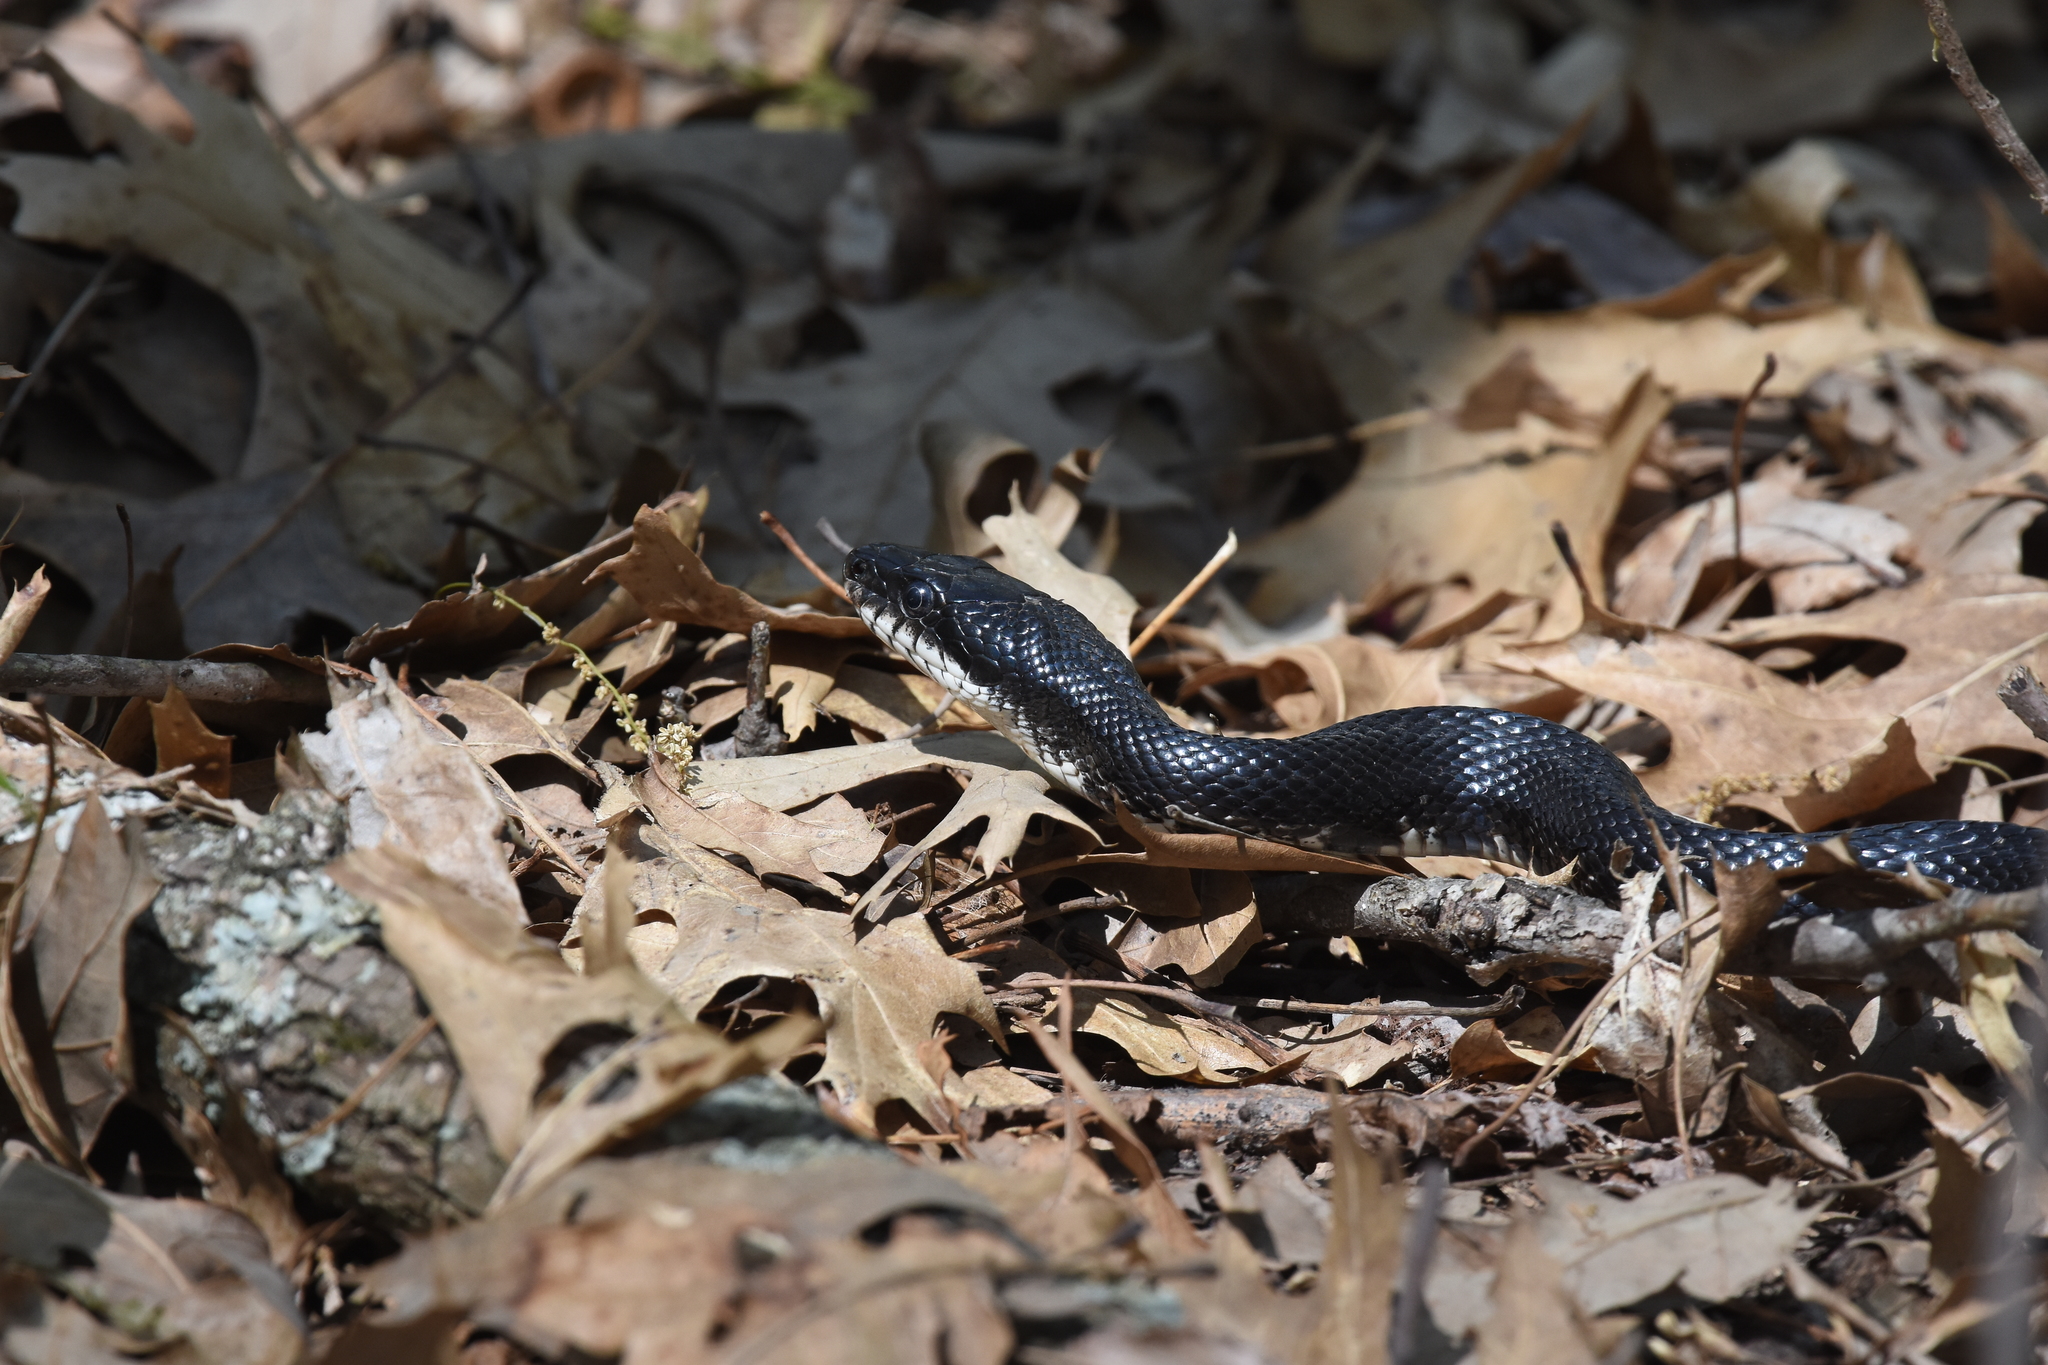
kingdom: Animalia
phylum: Chordata
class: Squamata
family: Colubridae
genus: Pantherophis
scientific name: Pantherophis obsoletus
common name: Black rat snake
